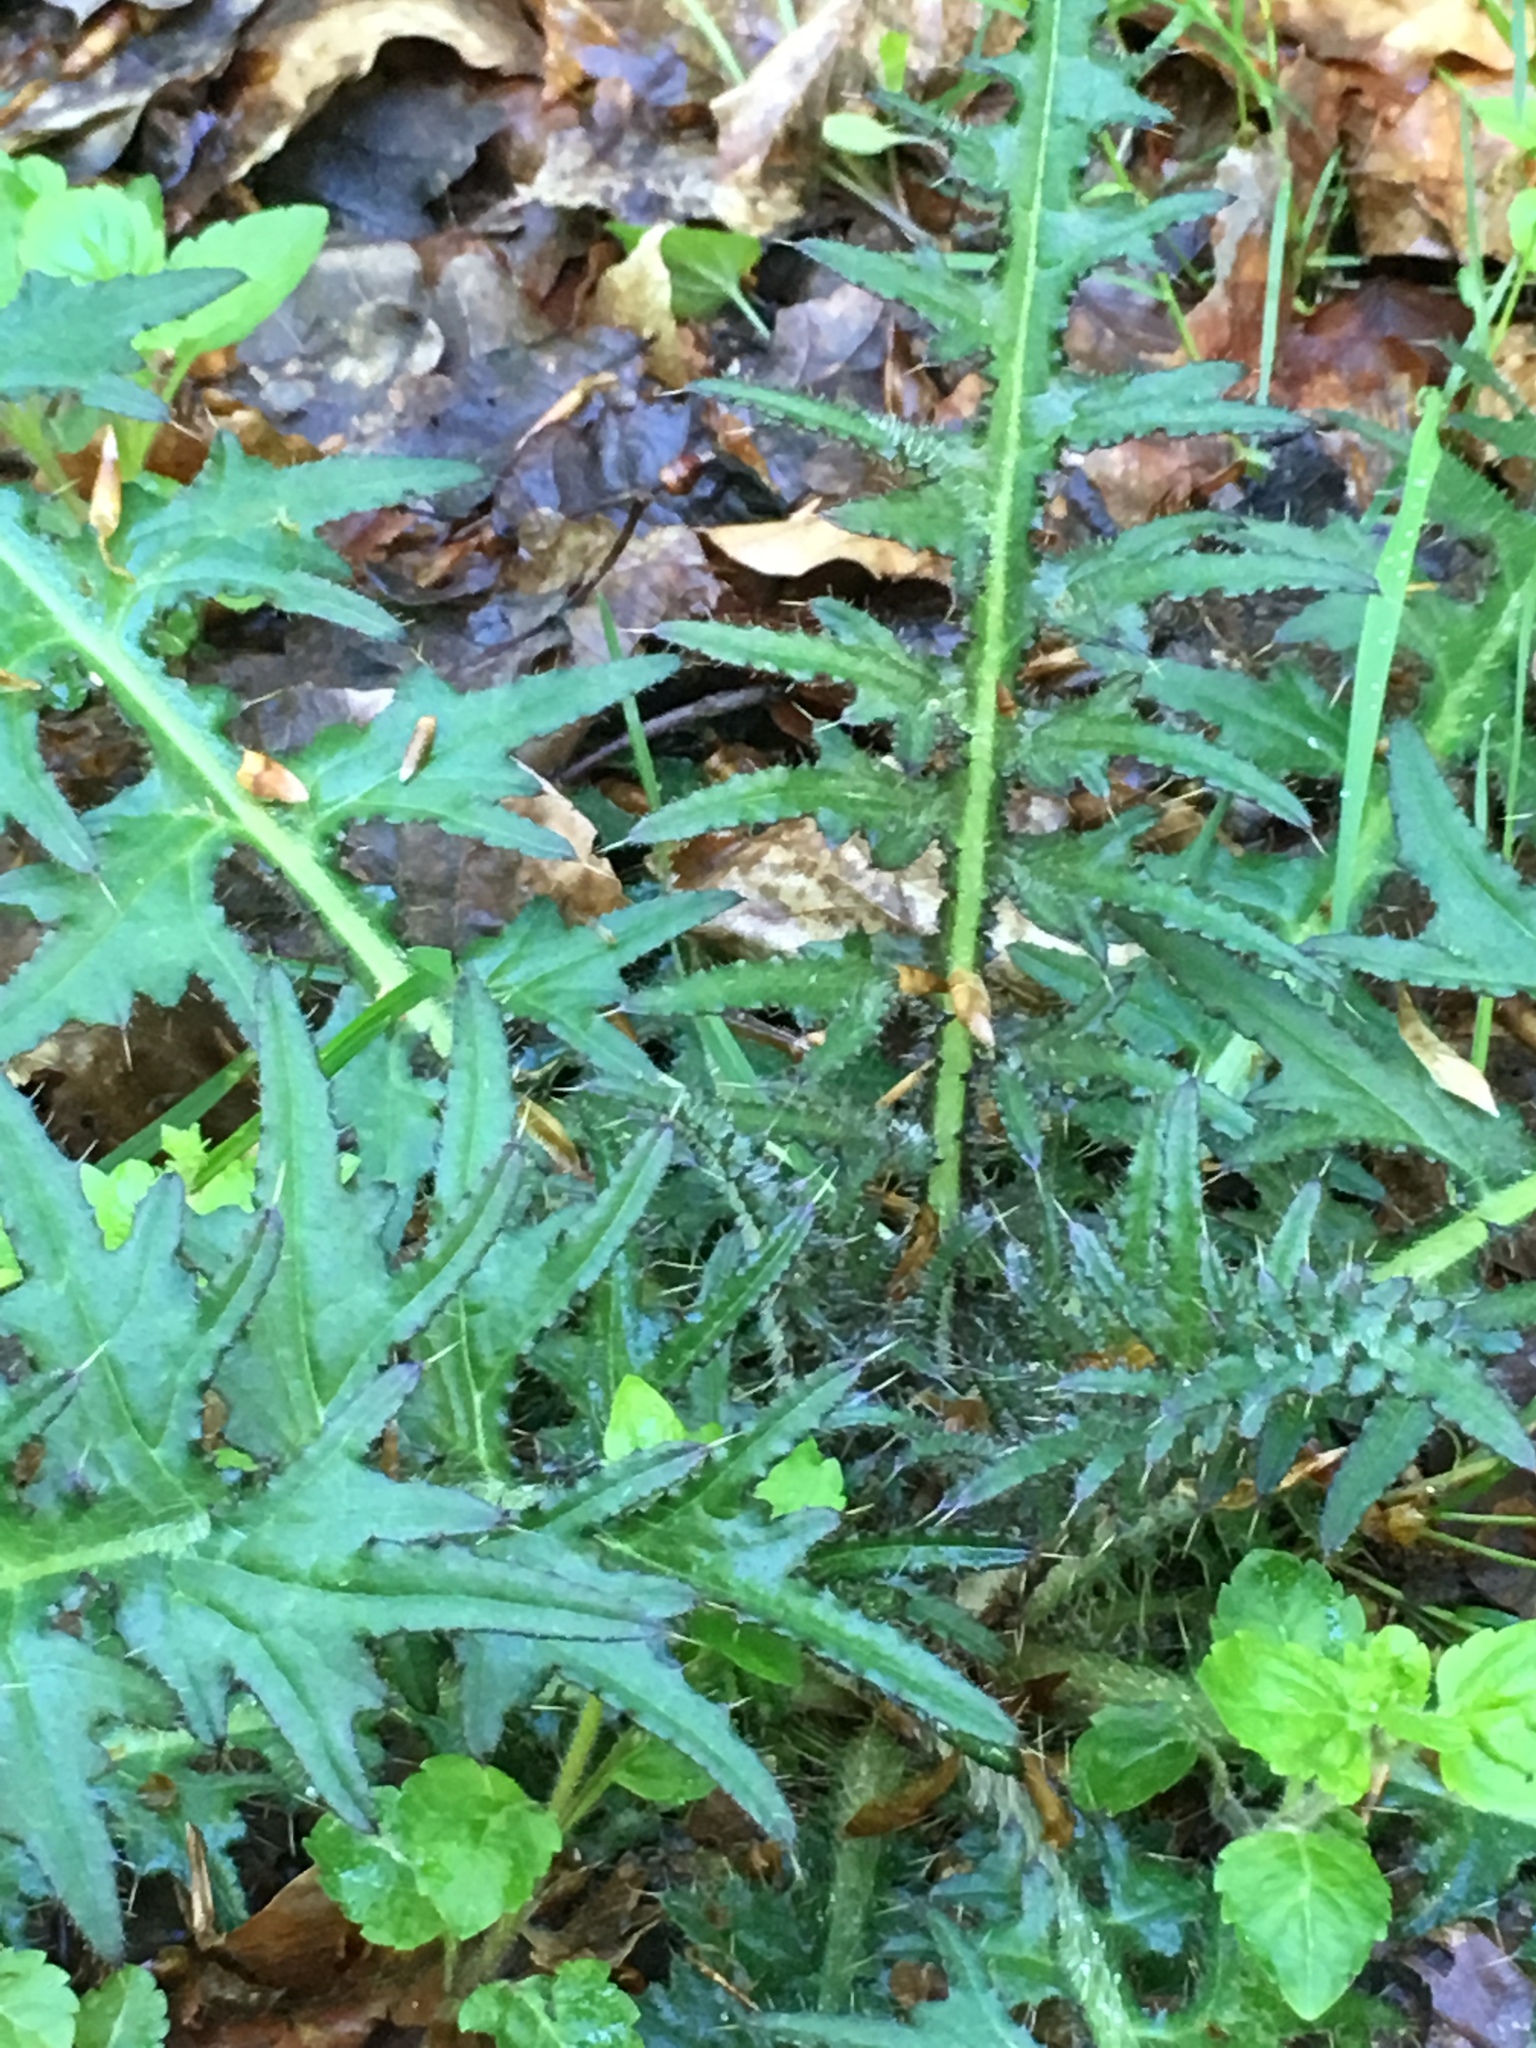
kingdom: Plantae
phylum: Tracheophyta
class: Magnoliopsida
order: Asterales
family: Asteraceae
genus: Cirsium
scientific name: Cirsium palustre
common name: Marsh thistle
